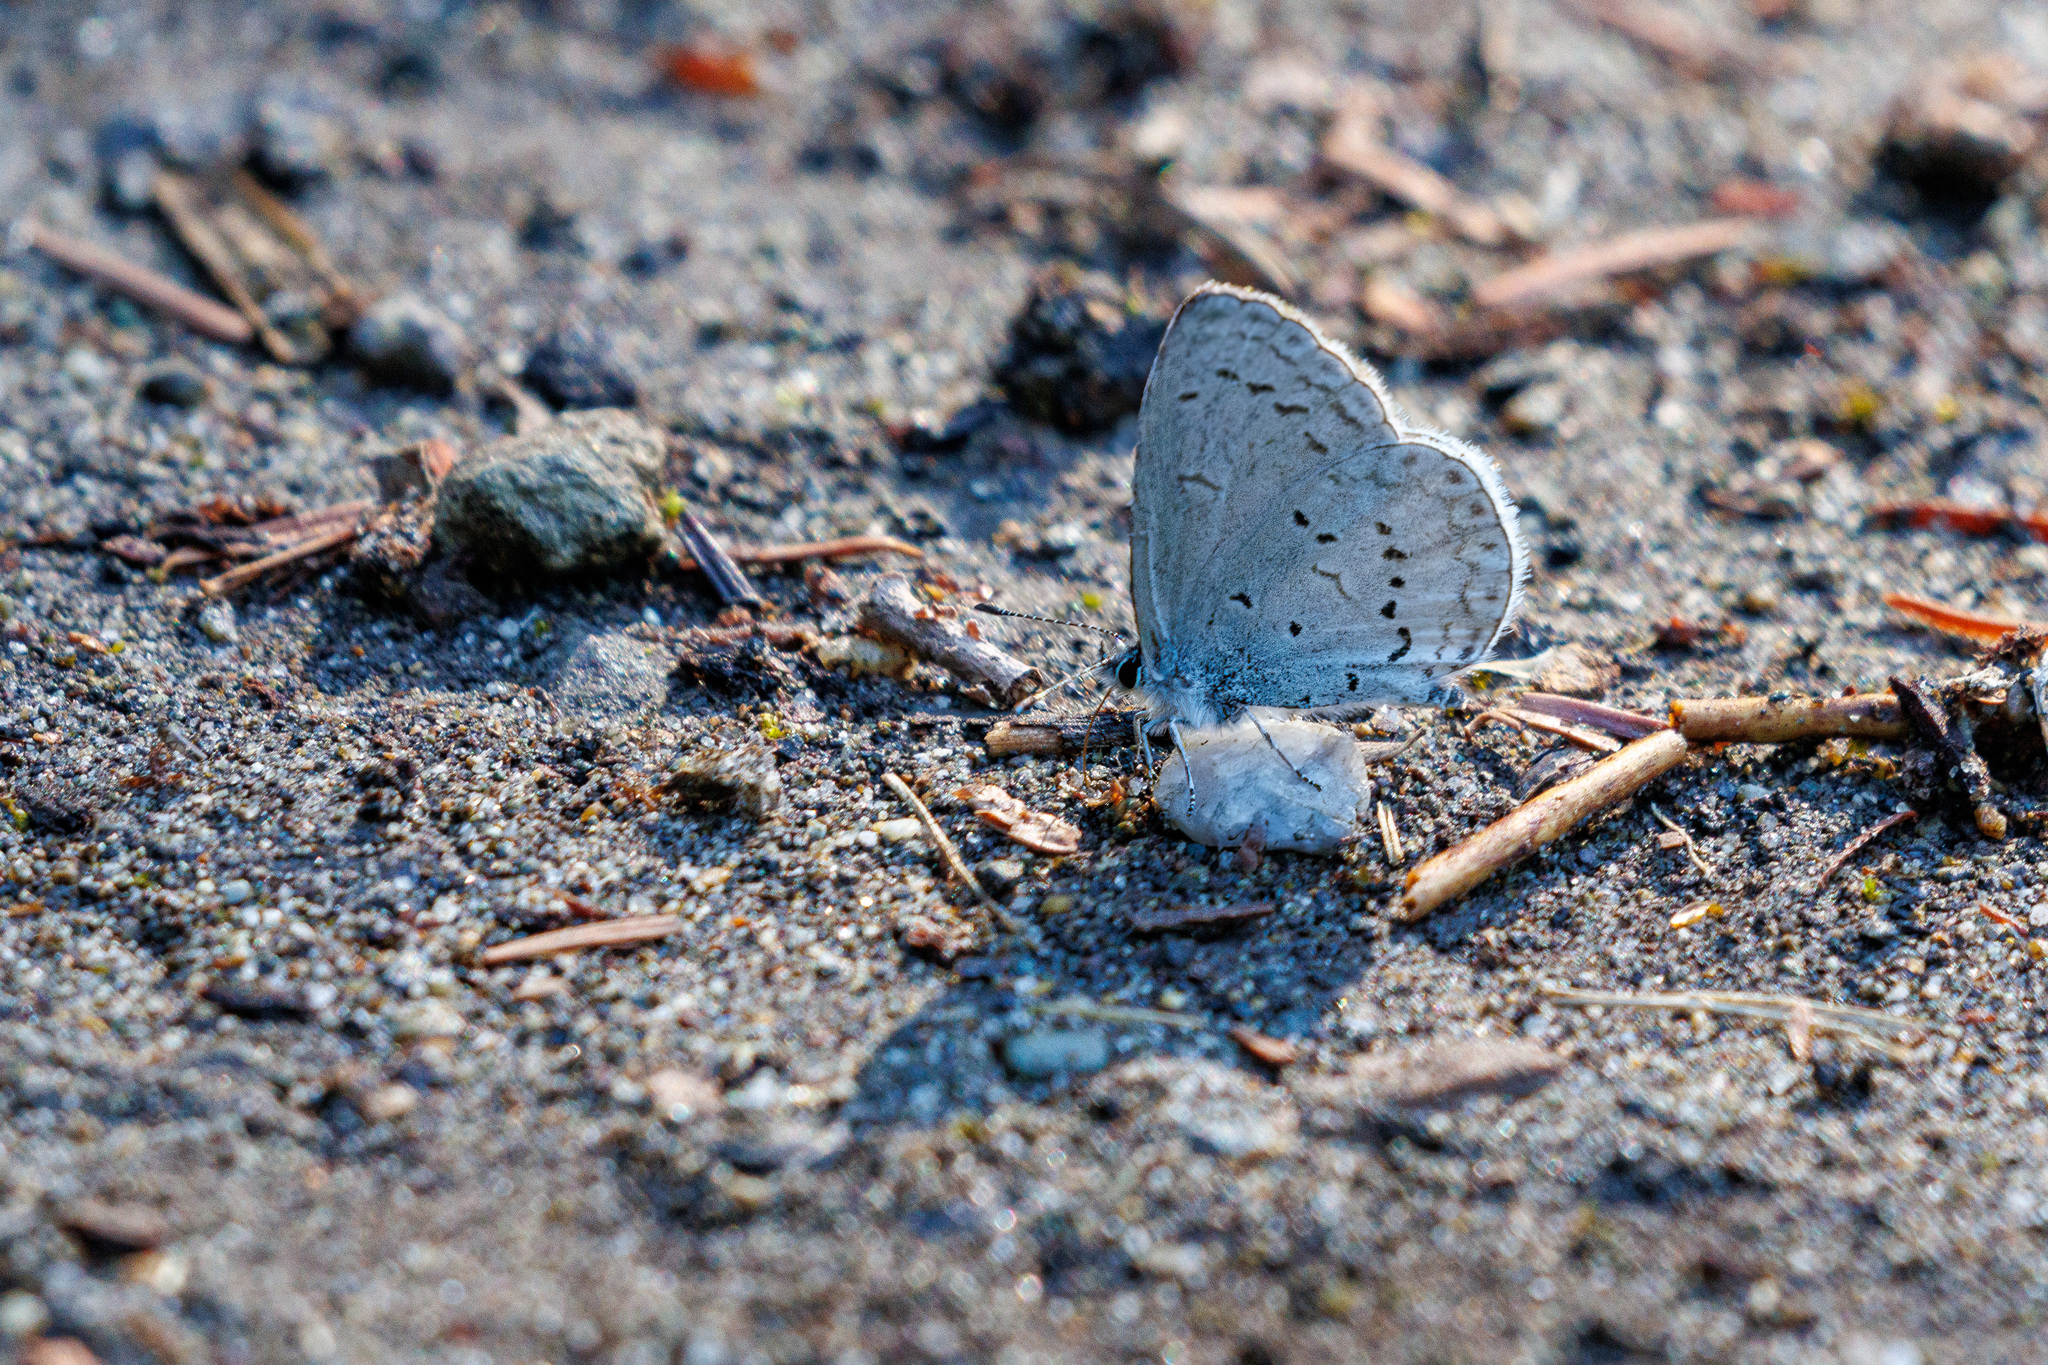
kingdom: Animalia
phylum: Arthropoda
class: Insecta
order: Lepidoptera
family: Lycaenidae
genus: Celastrina
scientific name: Celastrina ladon
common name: Spring azure
